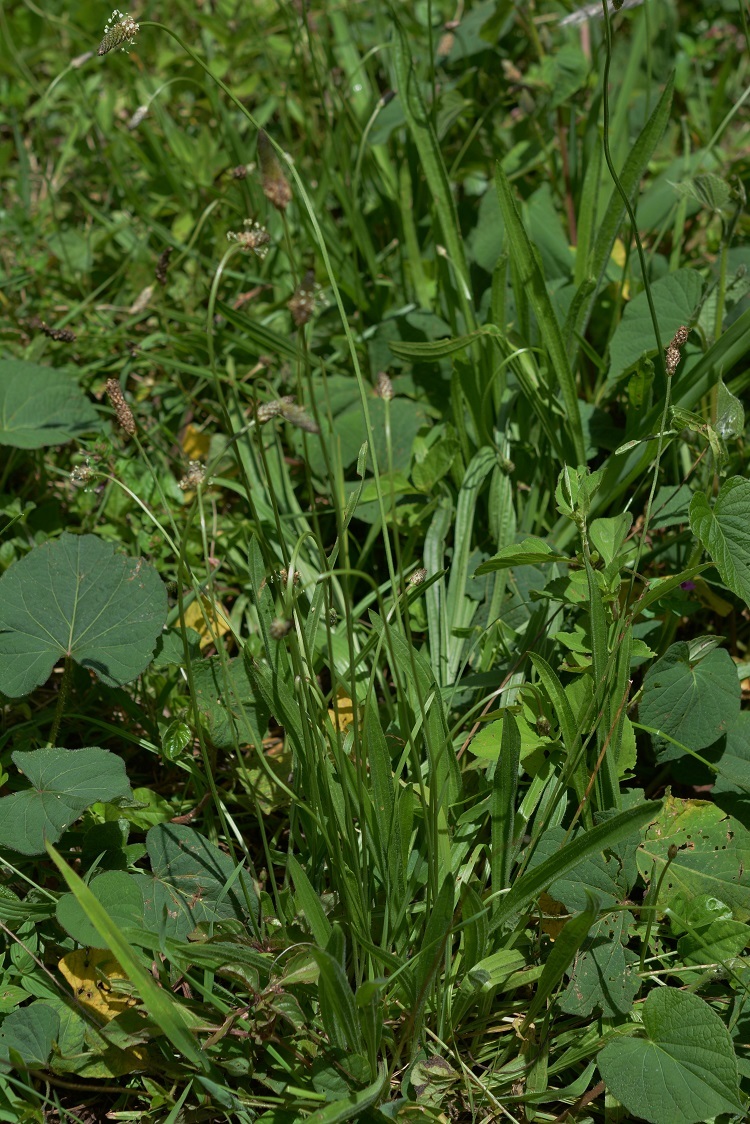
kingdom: Plantae
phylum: Tracheophyta
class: Magnoliopsida
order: Lamiales
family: Plantaginaceae
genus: Plantago
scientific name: Plantago lanceolata
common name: Ribwort plantain
